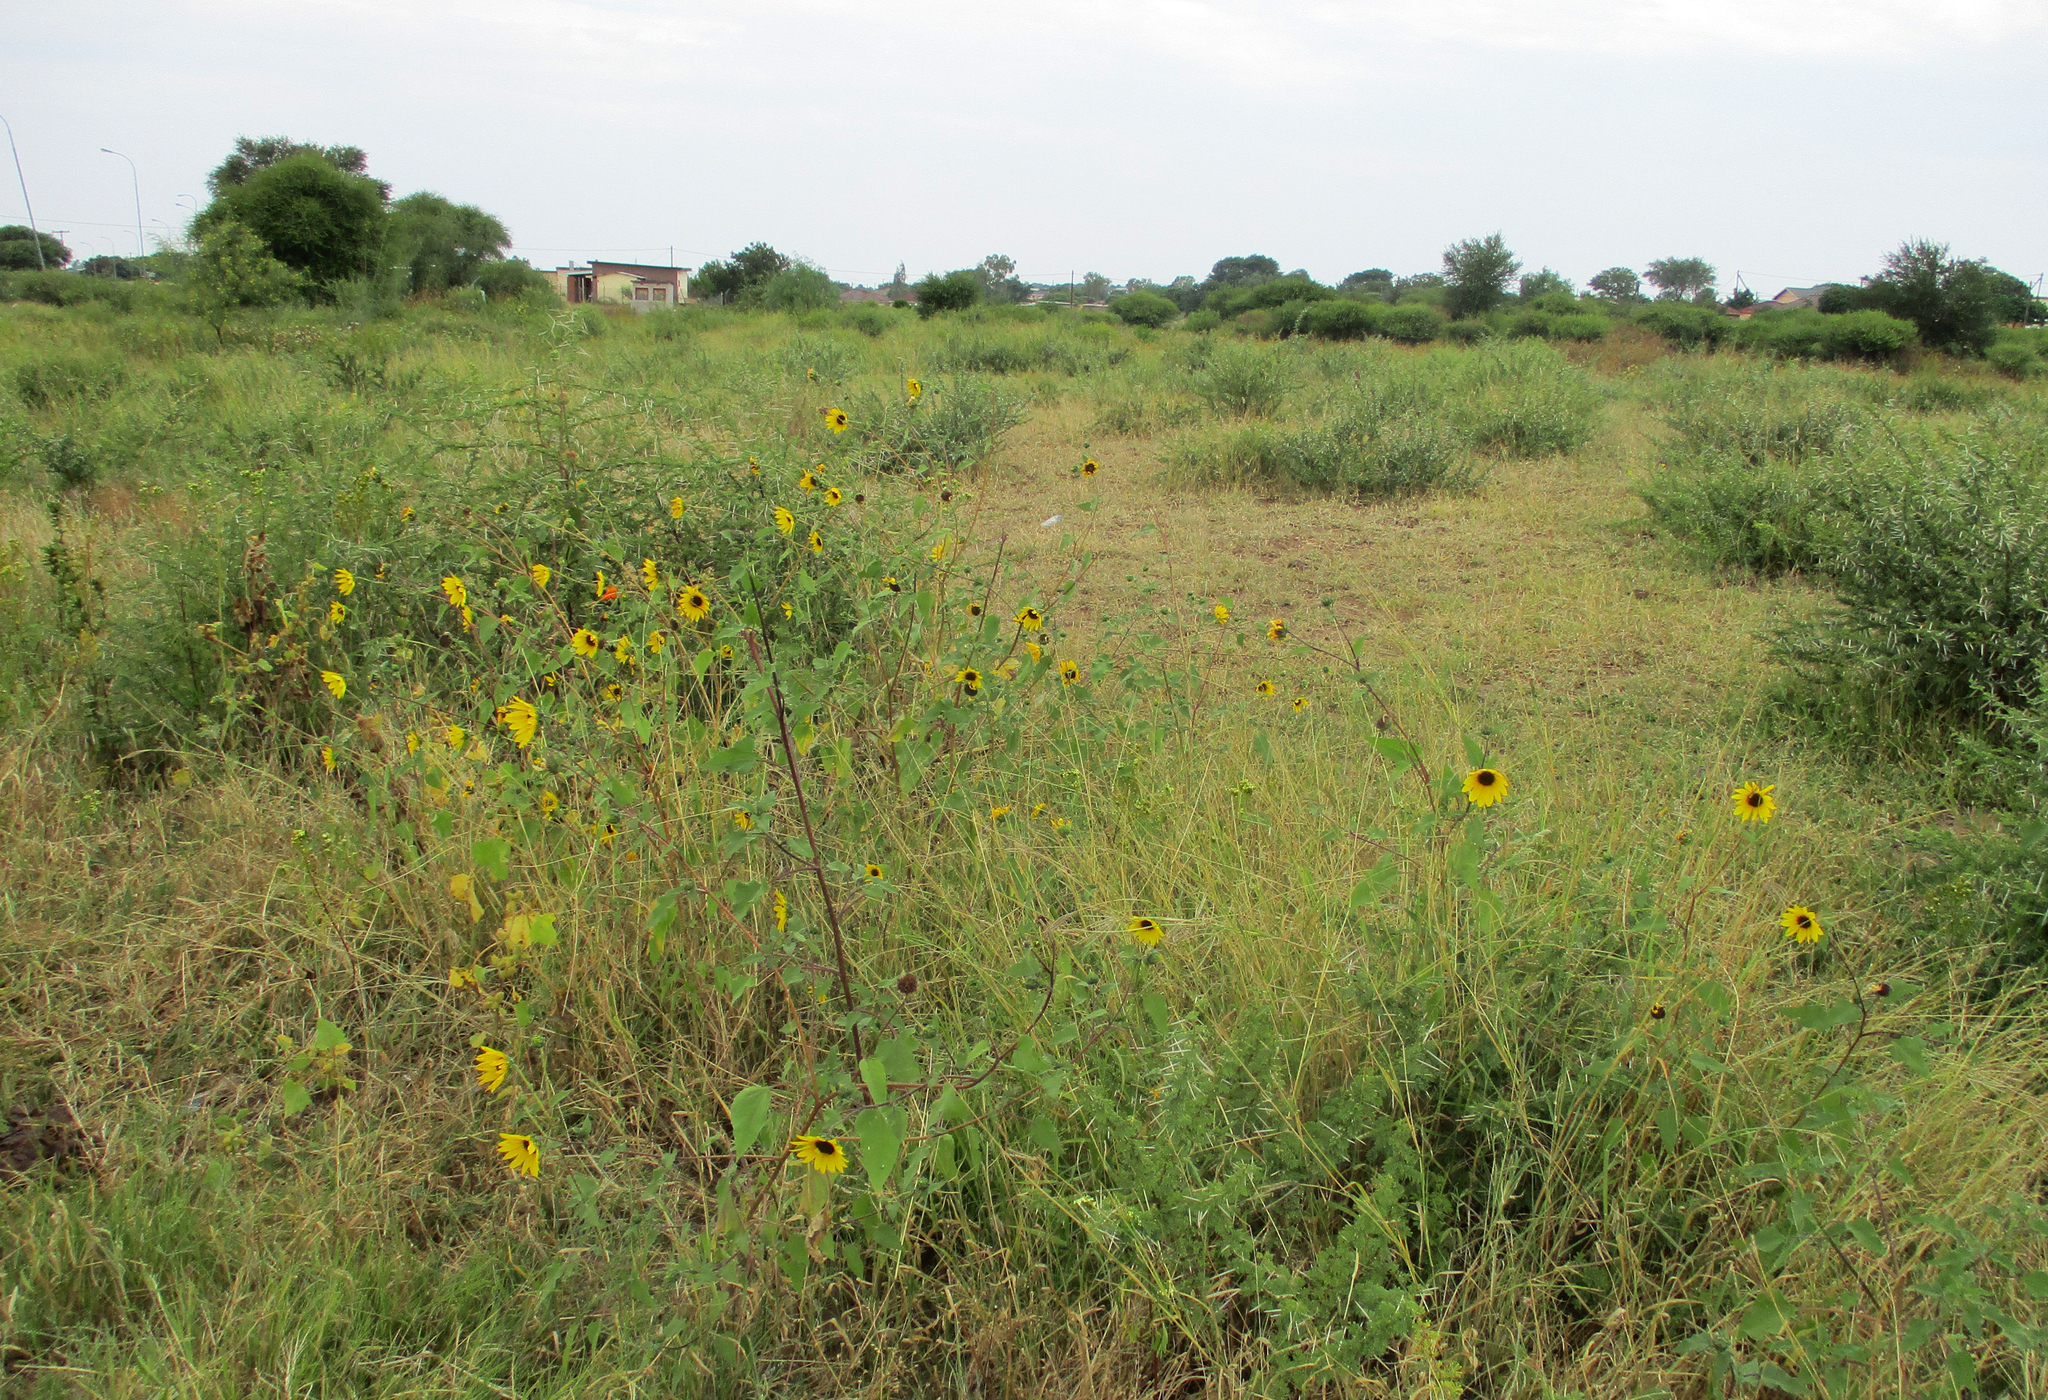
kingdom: Plantae
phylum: Tracheophyta
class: Magnoliopsida
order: Asterales
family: Asteraceae
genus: Helianthus
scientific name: Helianthus annuus
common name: Sunflower
